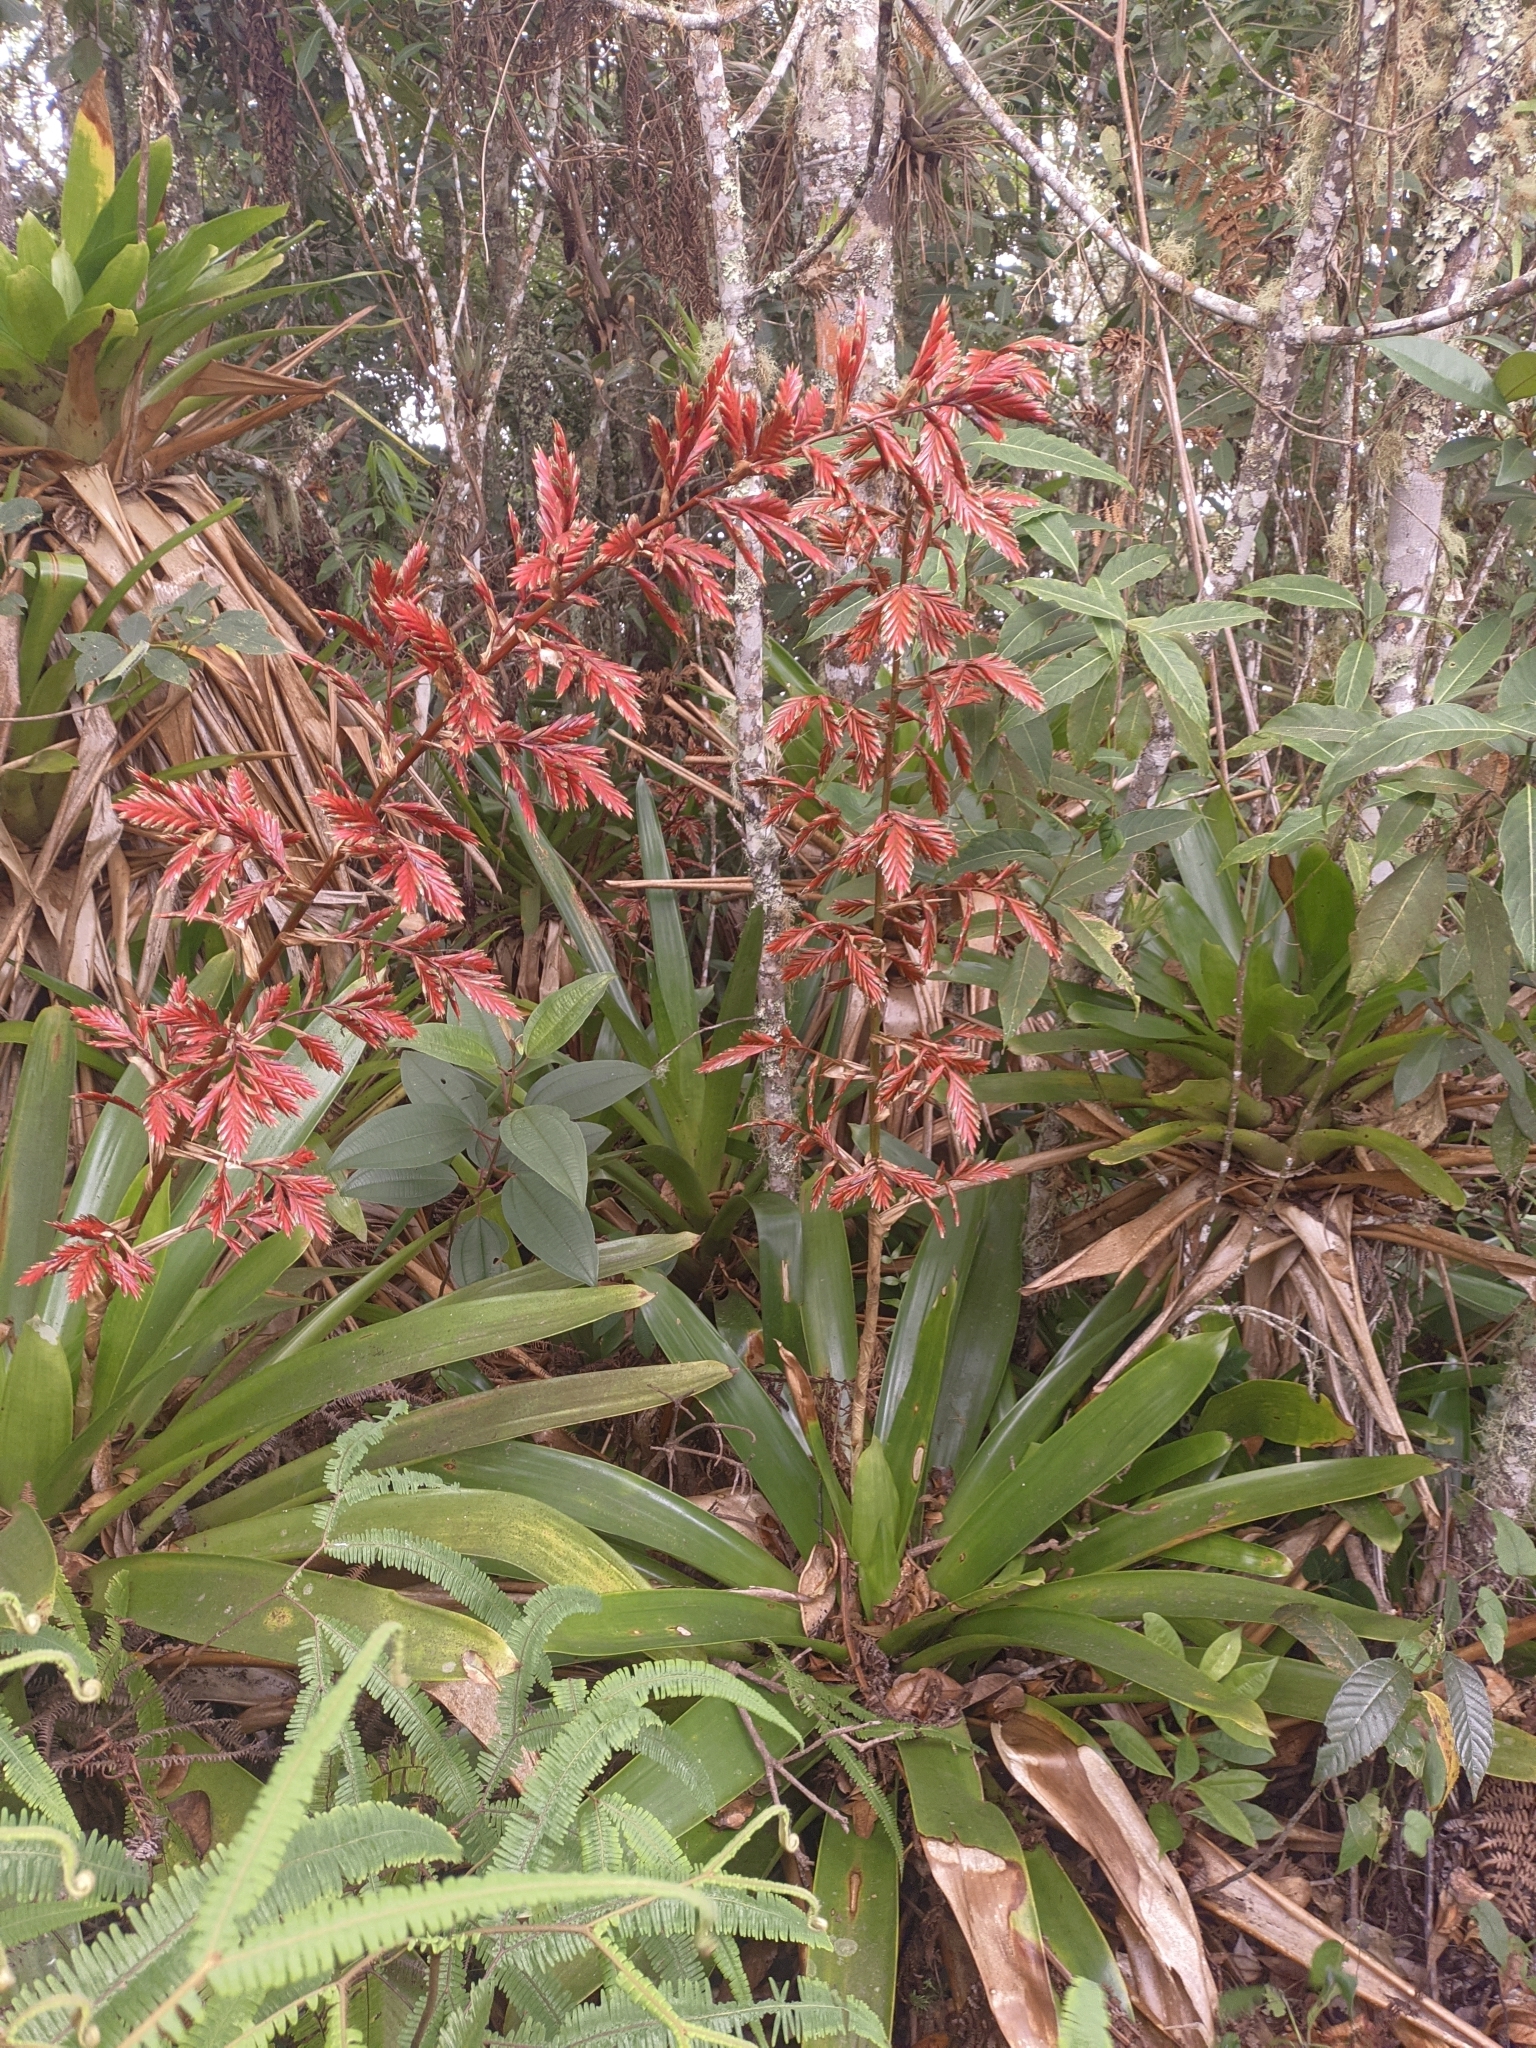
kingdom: Plantae
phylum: Tracheophyta
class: Liliopsida
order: Poales
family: Bromeliaceae
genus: Vriesea
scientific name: Vriesea elata
